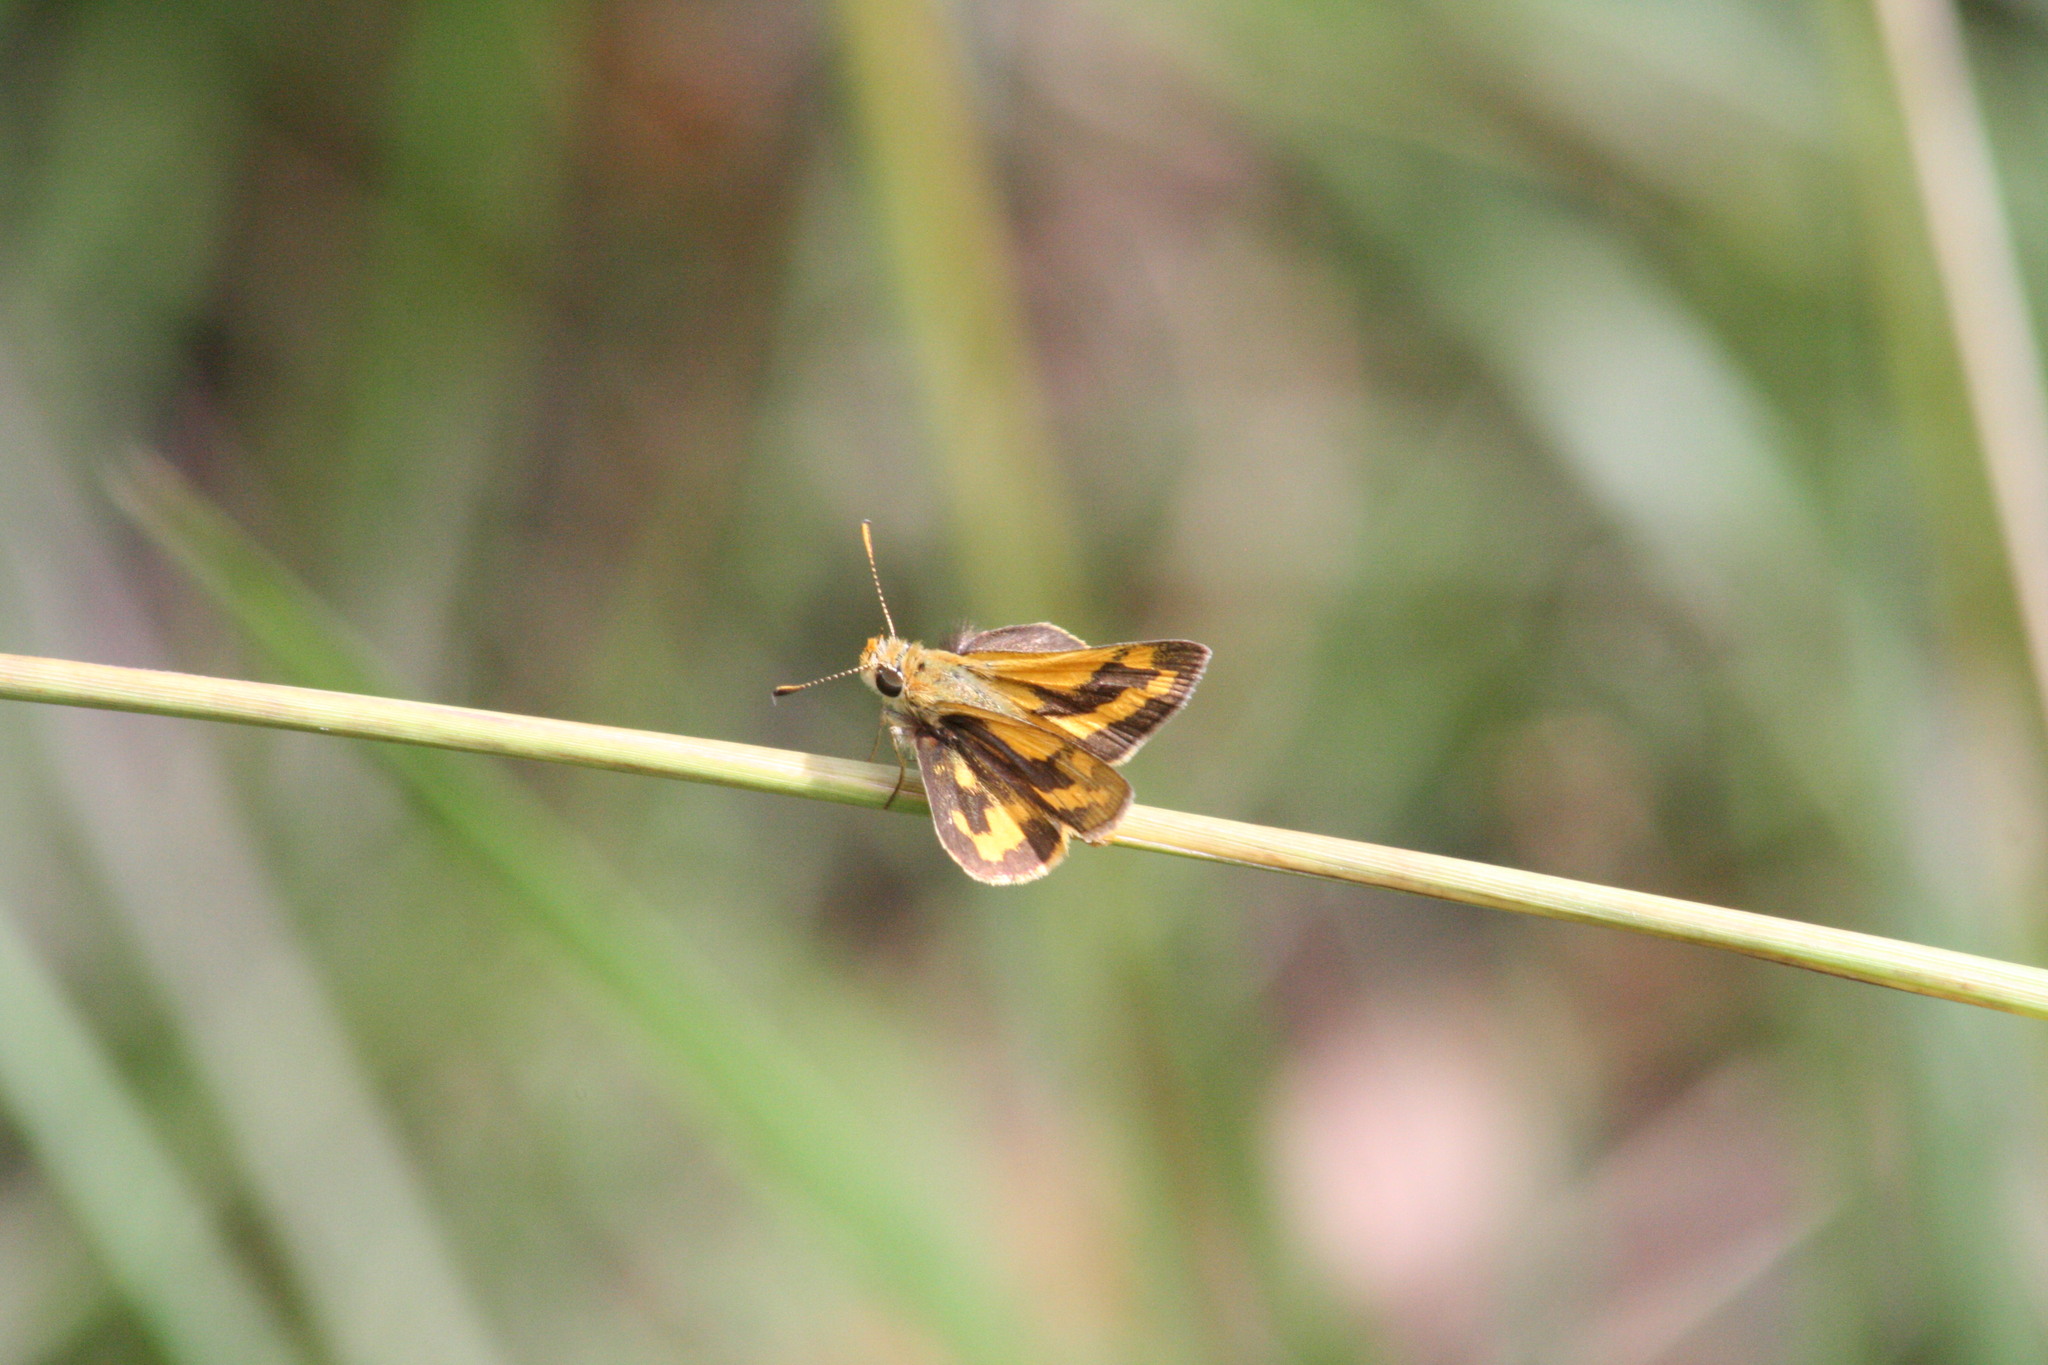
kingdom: Animalia
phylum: Arthropoda
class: Insecta
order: Lepidoptera
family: Hesperiidae
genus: Ocybadistes
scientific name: Ocybadistes walkeri
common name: Yellow-banded dart
